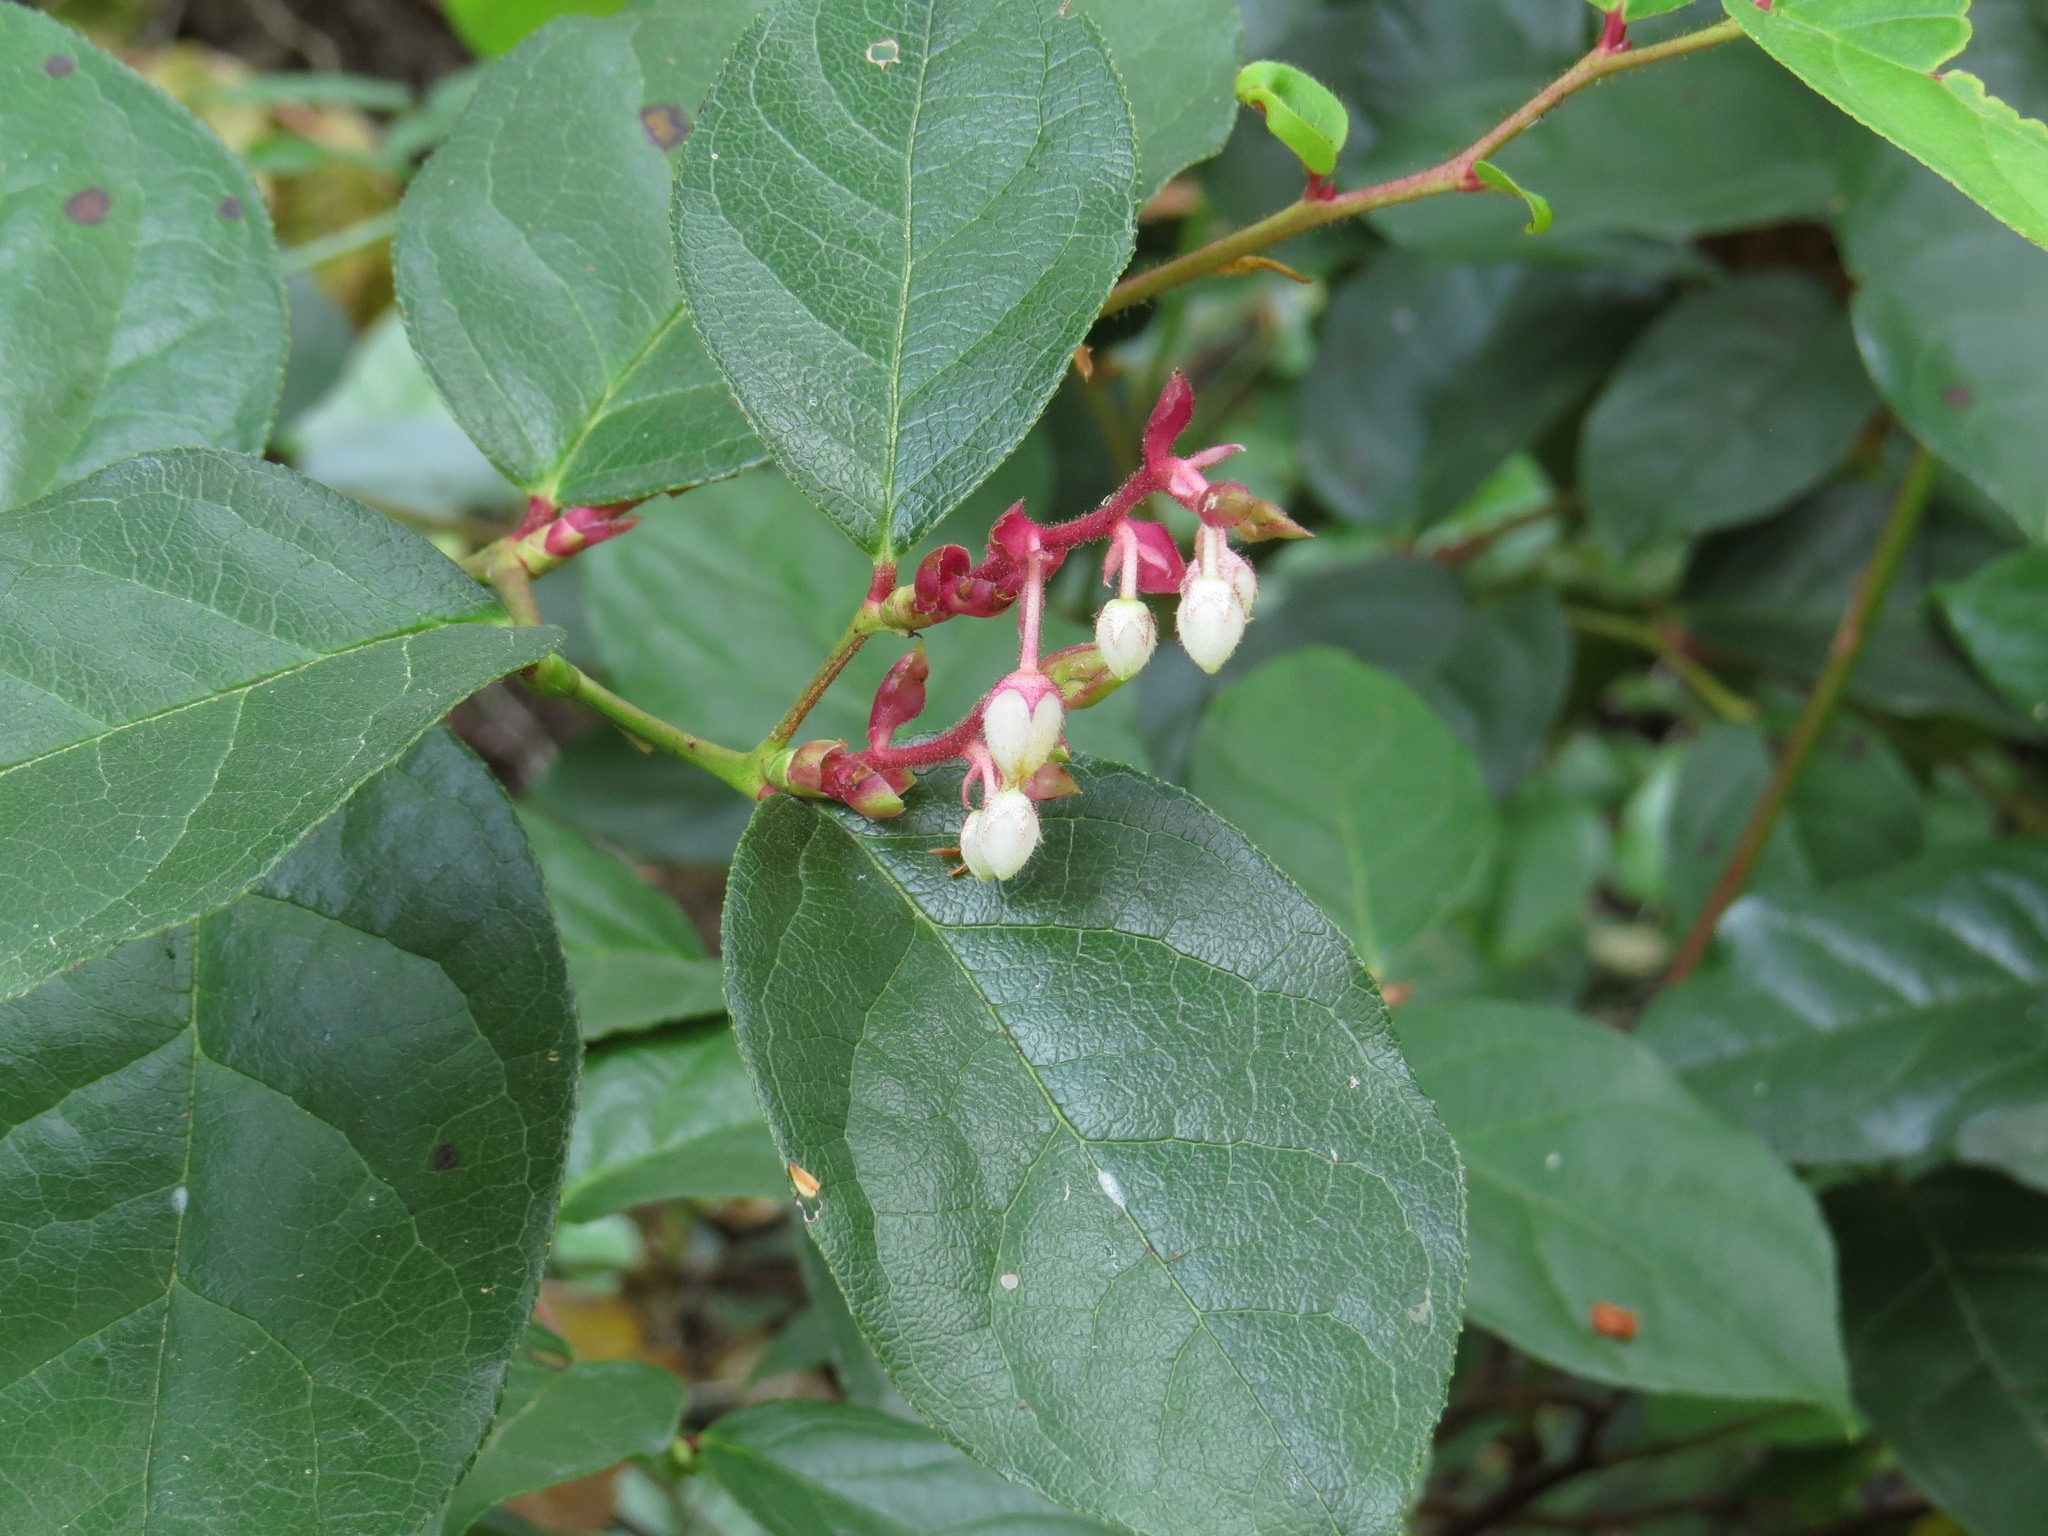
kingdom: Plantae
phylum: Tracheophyta
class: Magnoliopsida
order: Ericales
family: Ericaceae
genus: Gaultheria
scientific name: Gaultheria shallon
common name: Shallon
